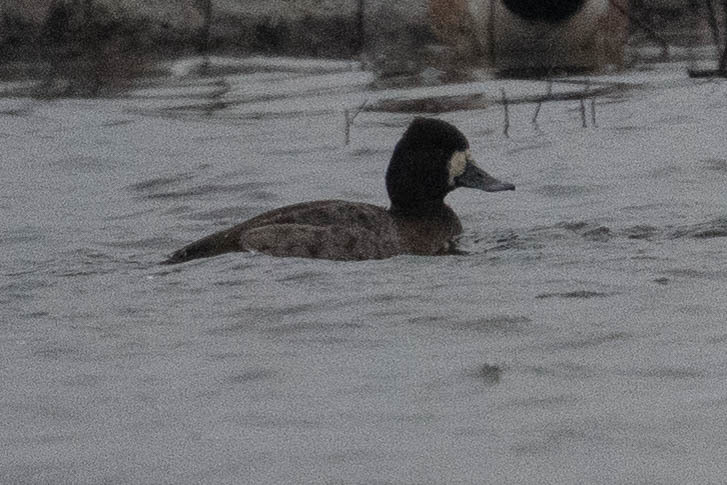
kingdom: Animalia
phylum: Chordata
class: Aves
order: Anseriformes
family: Anatidae
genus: Aythya
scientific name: Aythya affinis
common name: Lesser scaup
